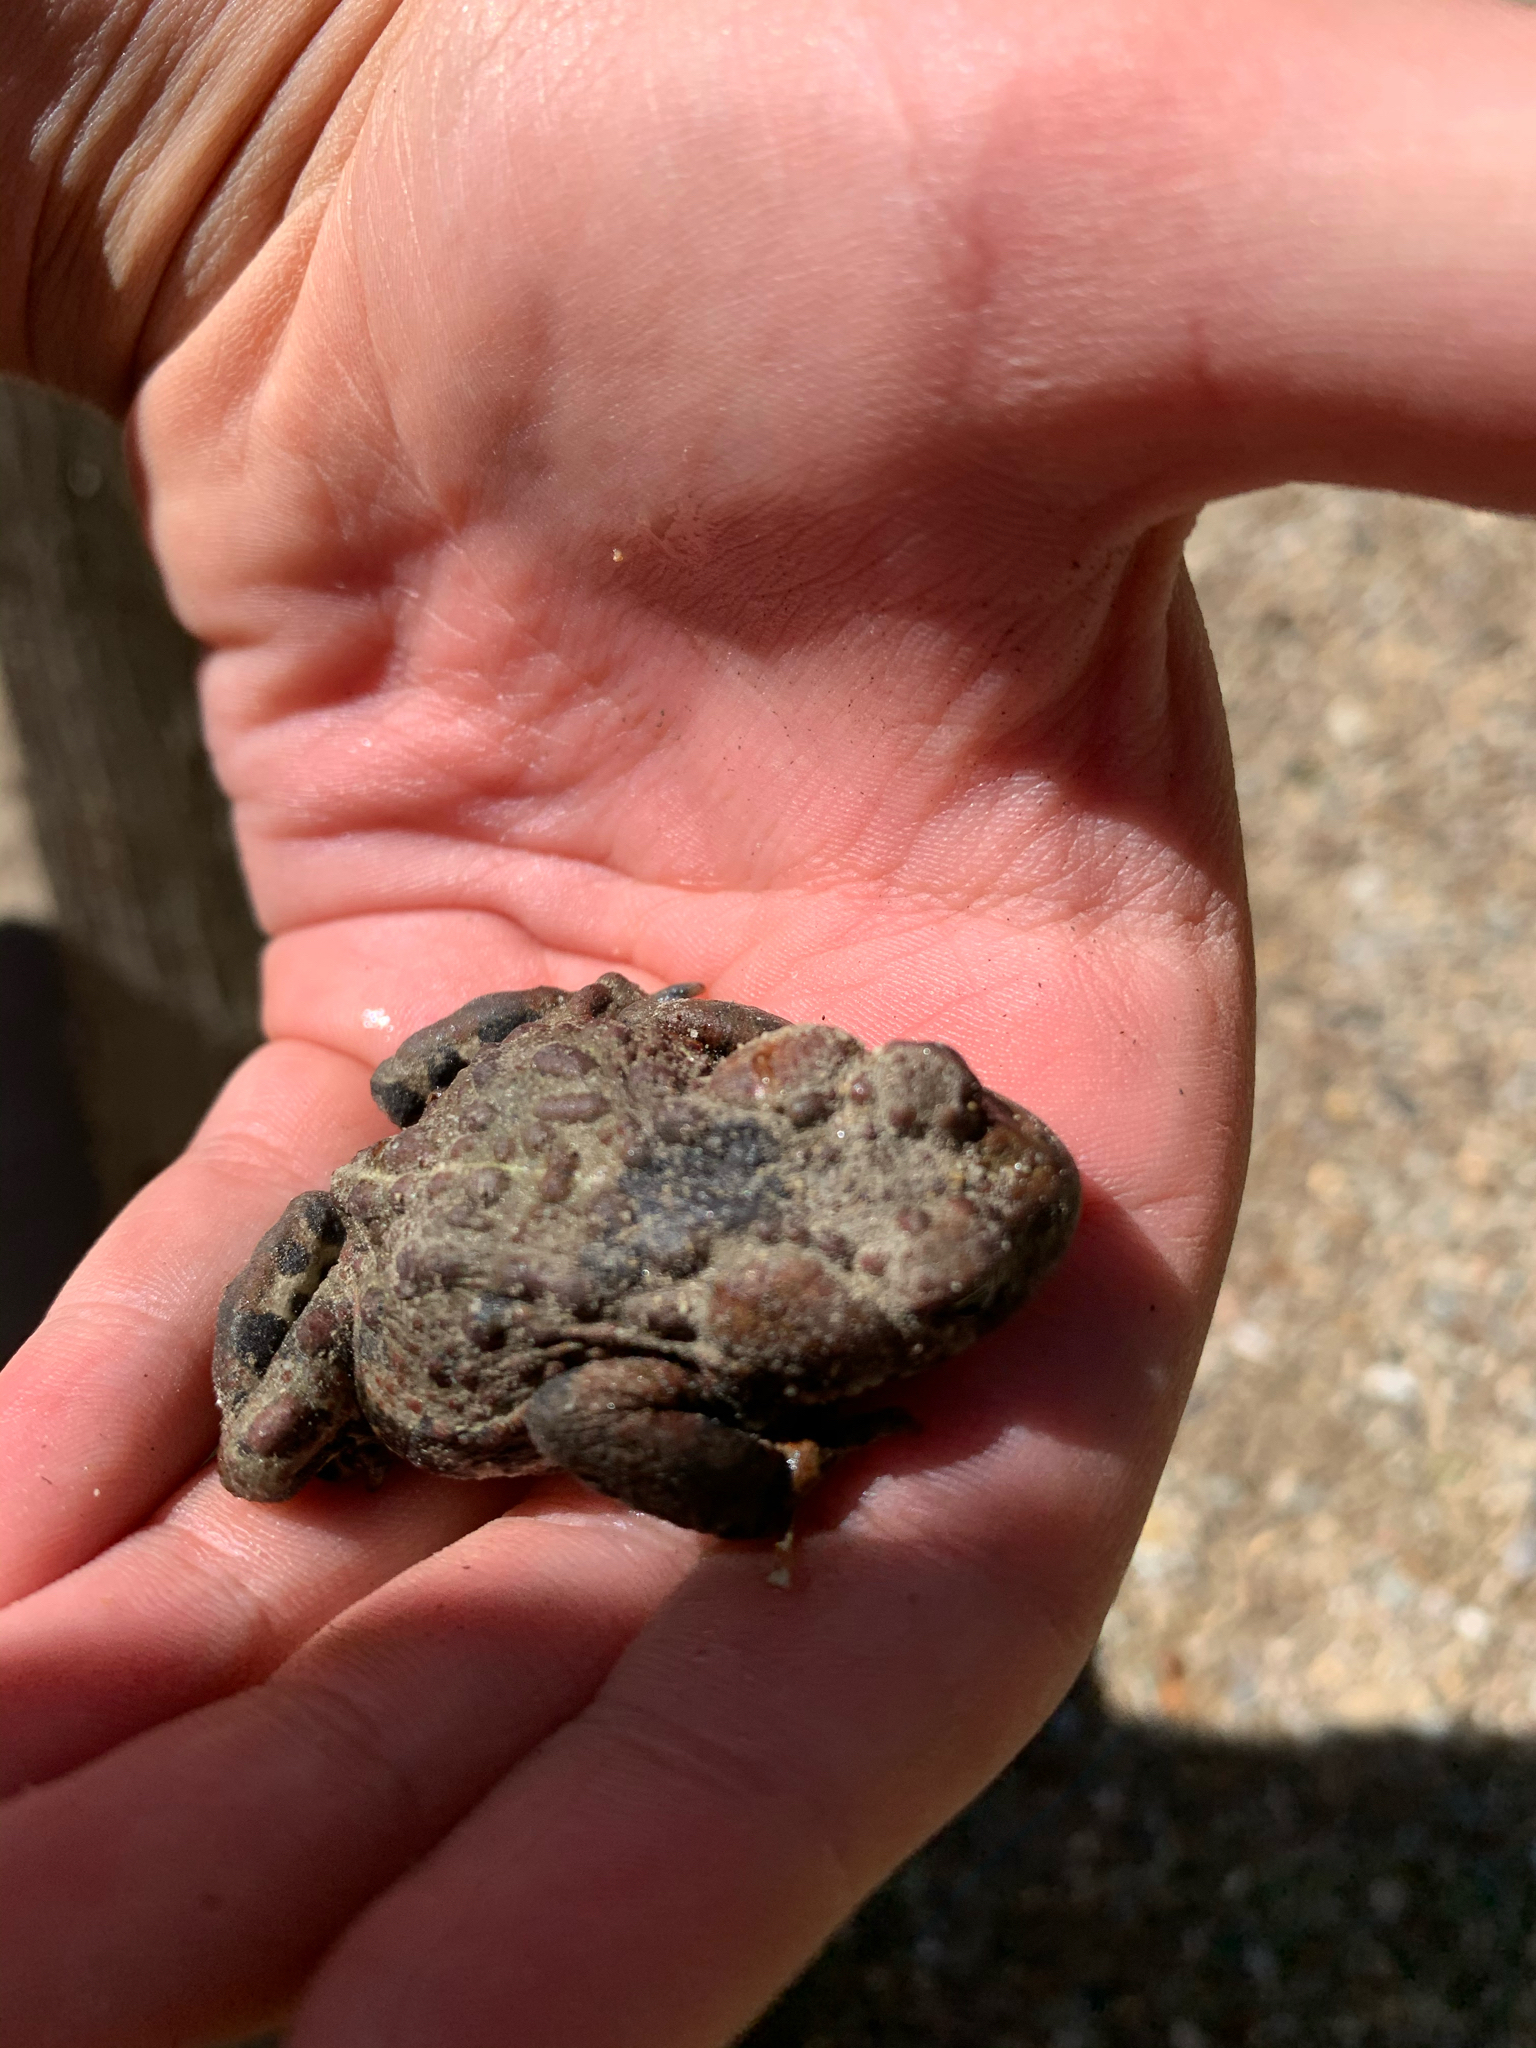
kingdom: Animalia
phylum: Chordata
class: Amphibia
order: Anura
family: Bufonidae
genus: Anaxyrus
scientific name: Anaxyrus boreas
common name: Western toad
